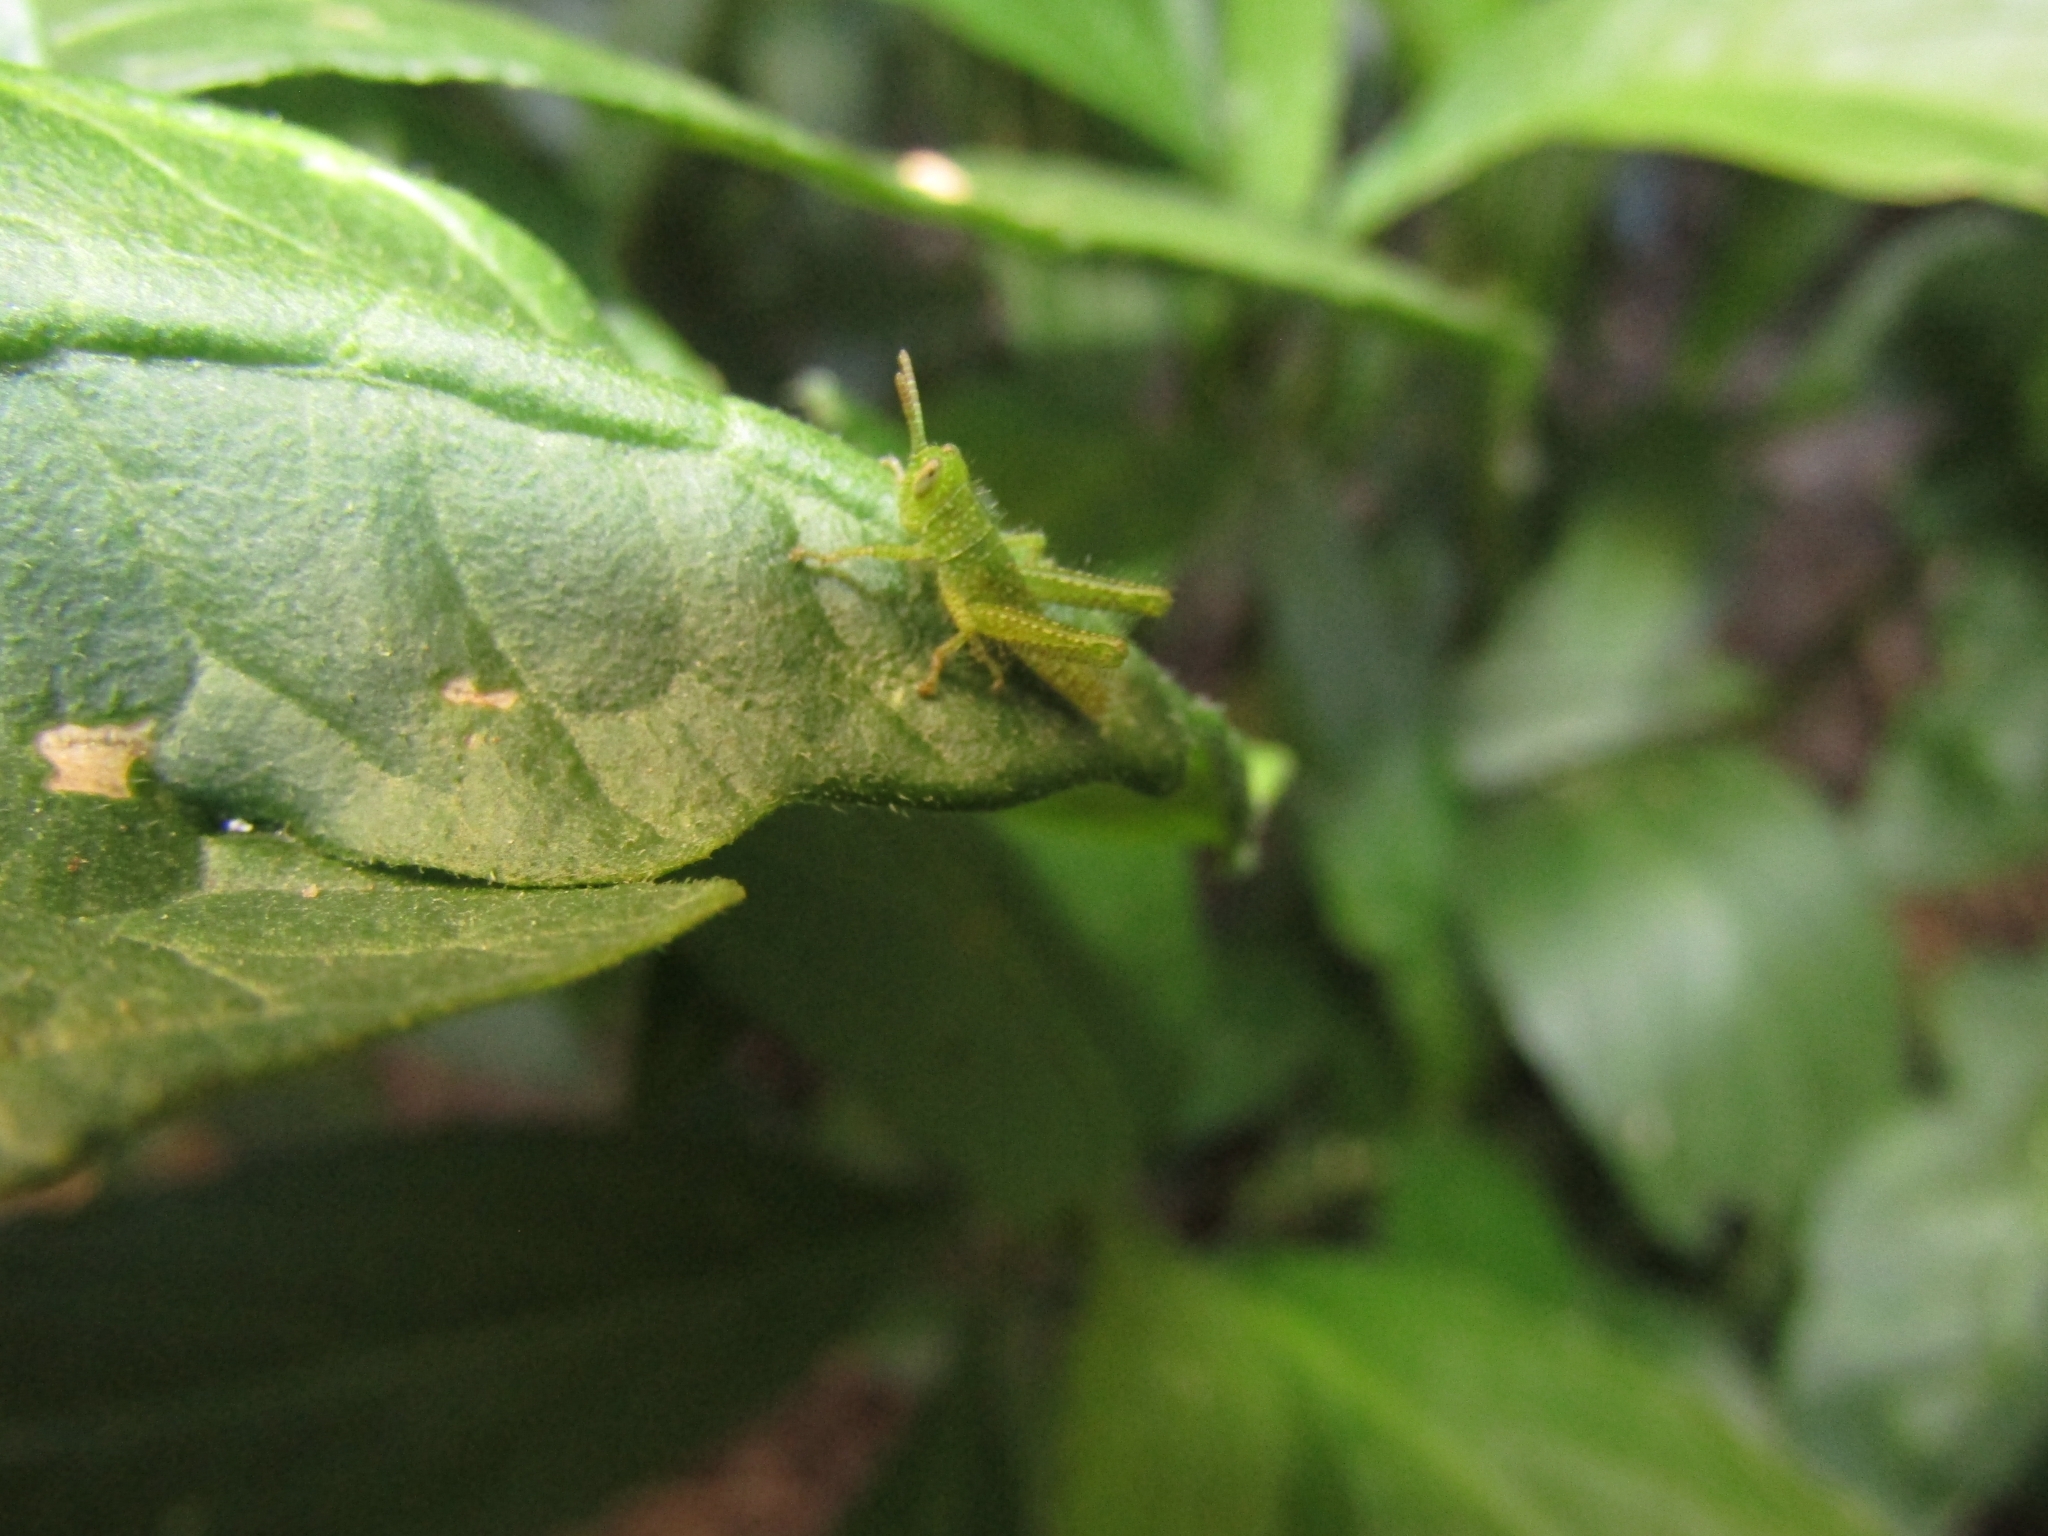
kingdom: Animalia
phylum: Arthropoda
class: Insecta
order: Orthoptera
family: Acrididae
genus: Schistocerca
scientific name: Schistocerca flavofasciata
